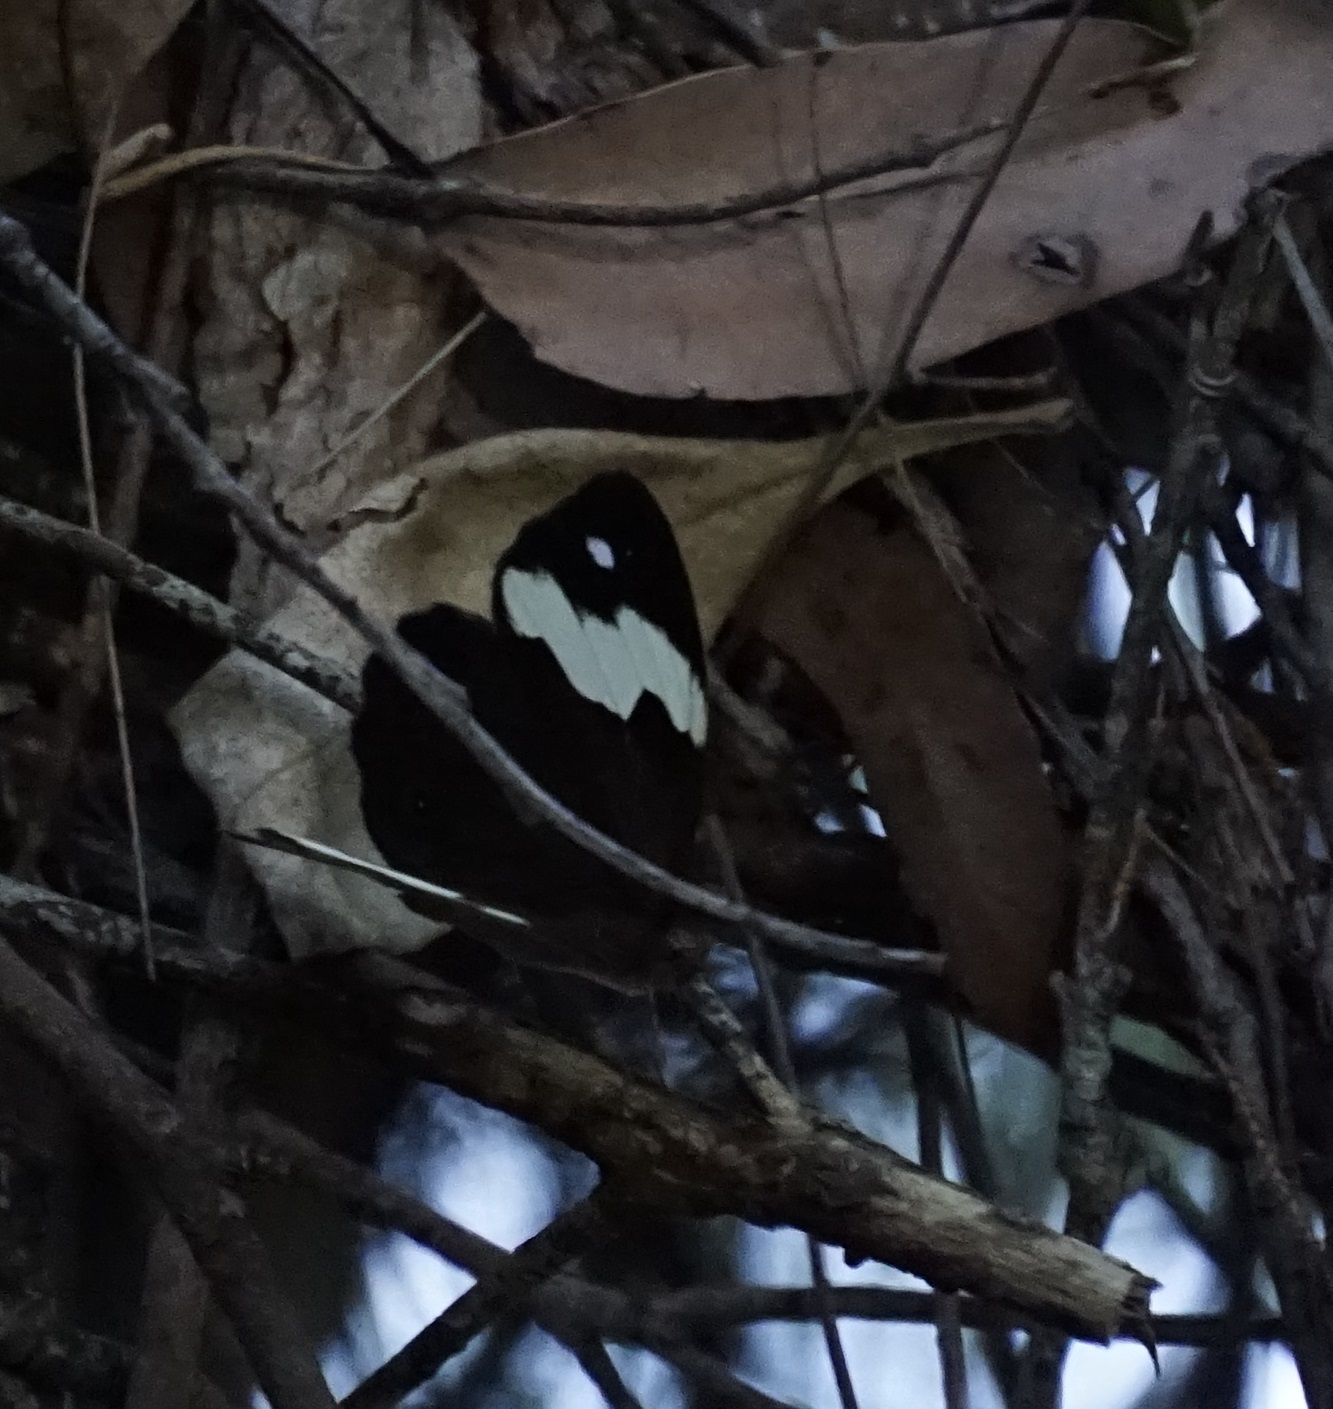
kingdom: Animalia
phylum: Arthropoda
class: Insecta
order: Lepidoptera
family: Nymphalidae
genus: Heteronympha
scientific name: Heteronympha mirifica
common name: Wonder brown
